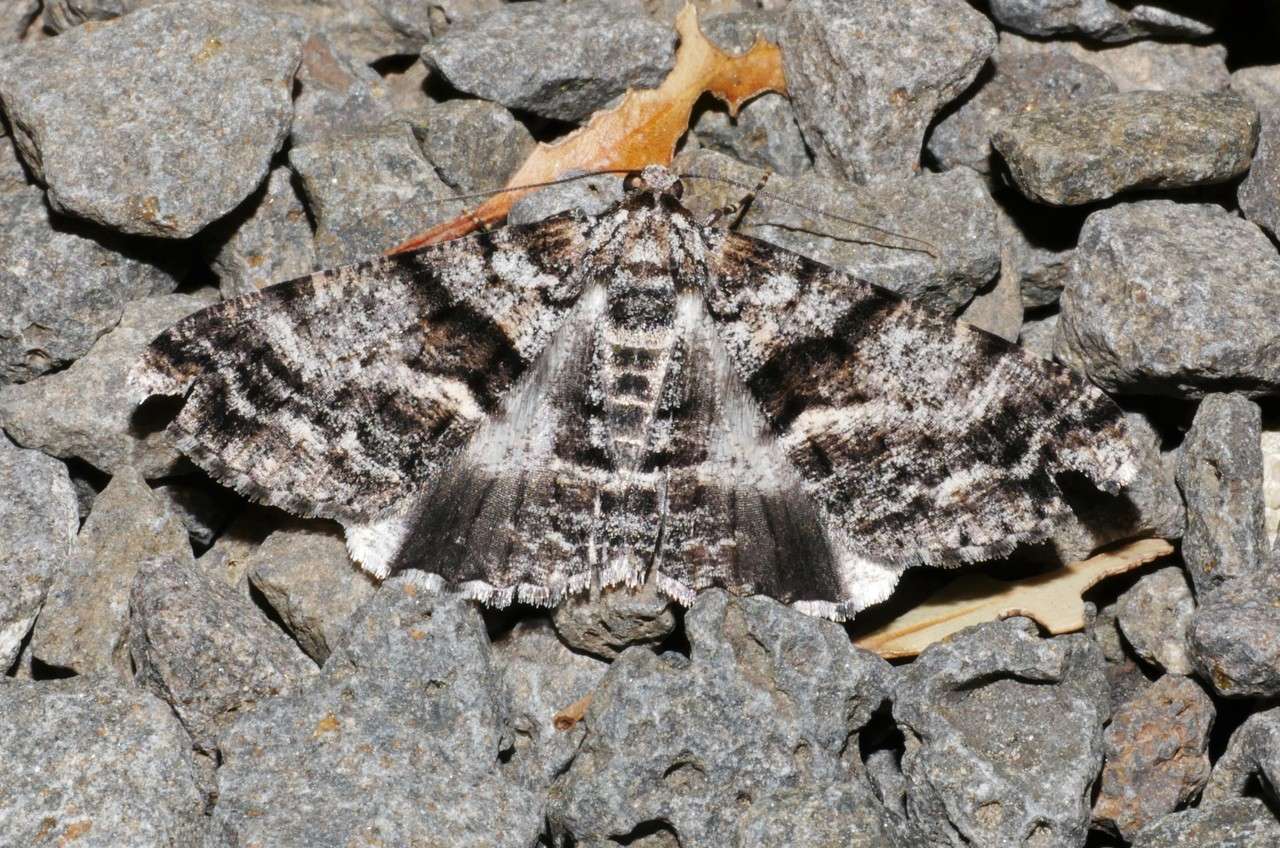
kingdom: Animalia
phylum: Arthropoda
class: Insecta
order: Lepidoptera
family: Geometridae
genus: Gastrinodes
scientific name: Gastrinodes argoplaca
